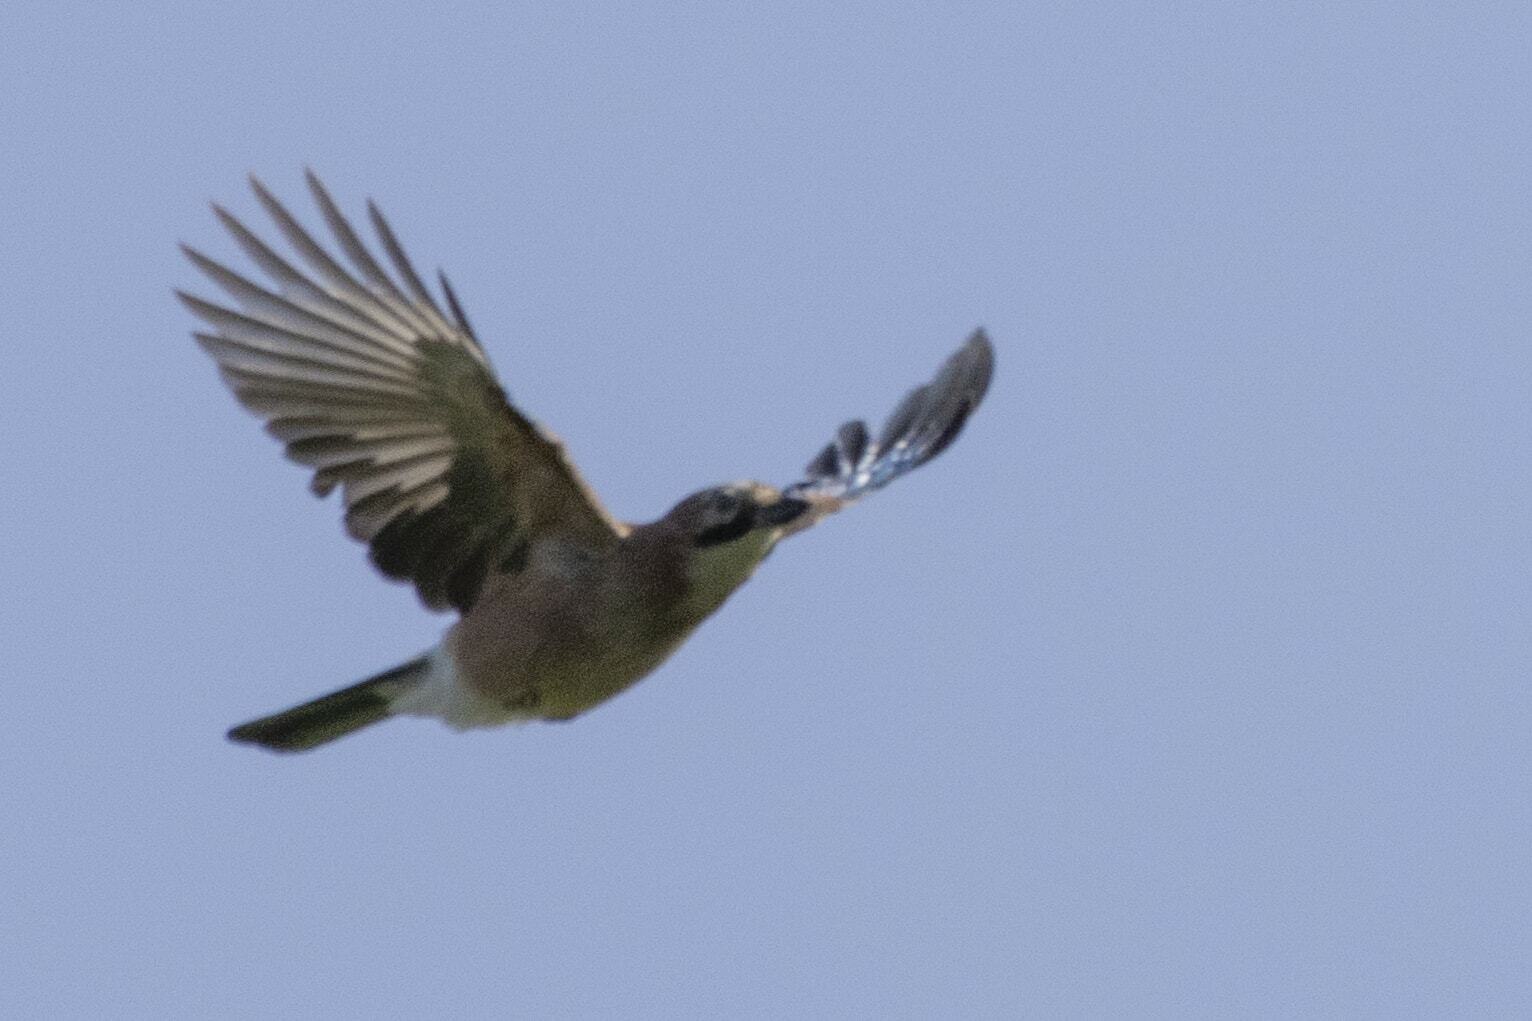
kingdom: Animalia
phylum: Chordata
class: Aves
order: Passeriformes
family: Corvidae
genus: Garrulus
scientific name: Garrulus glandarius
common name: Eurasian jay
